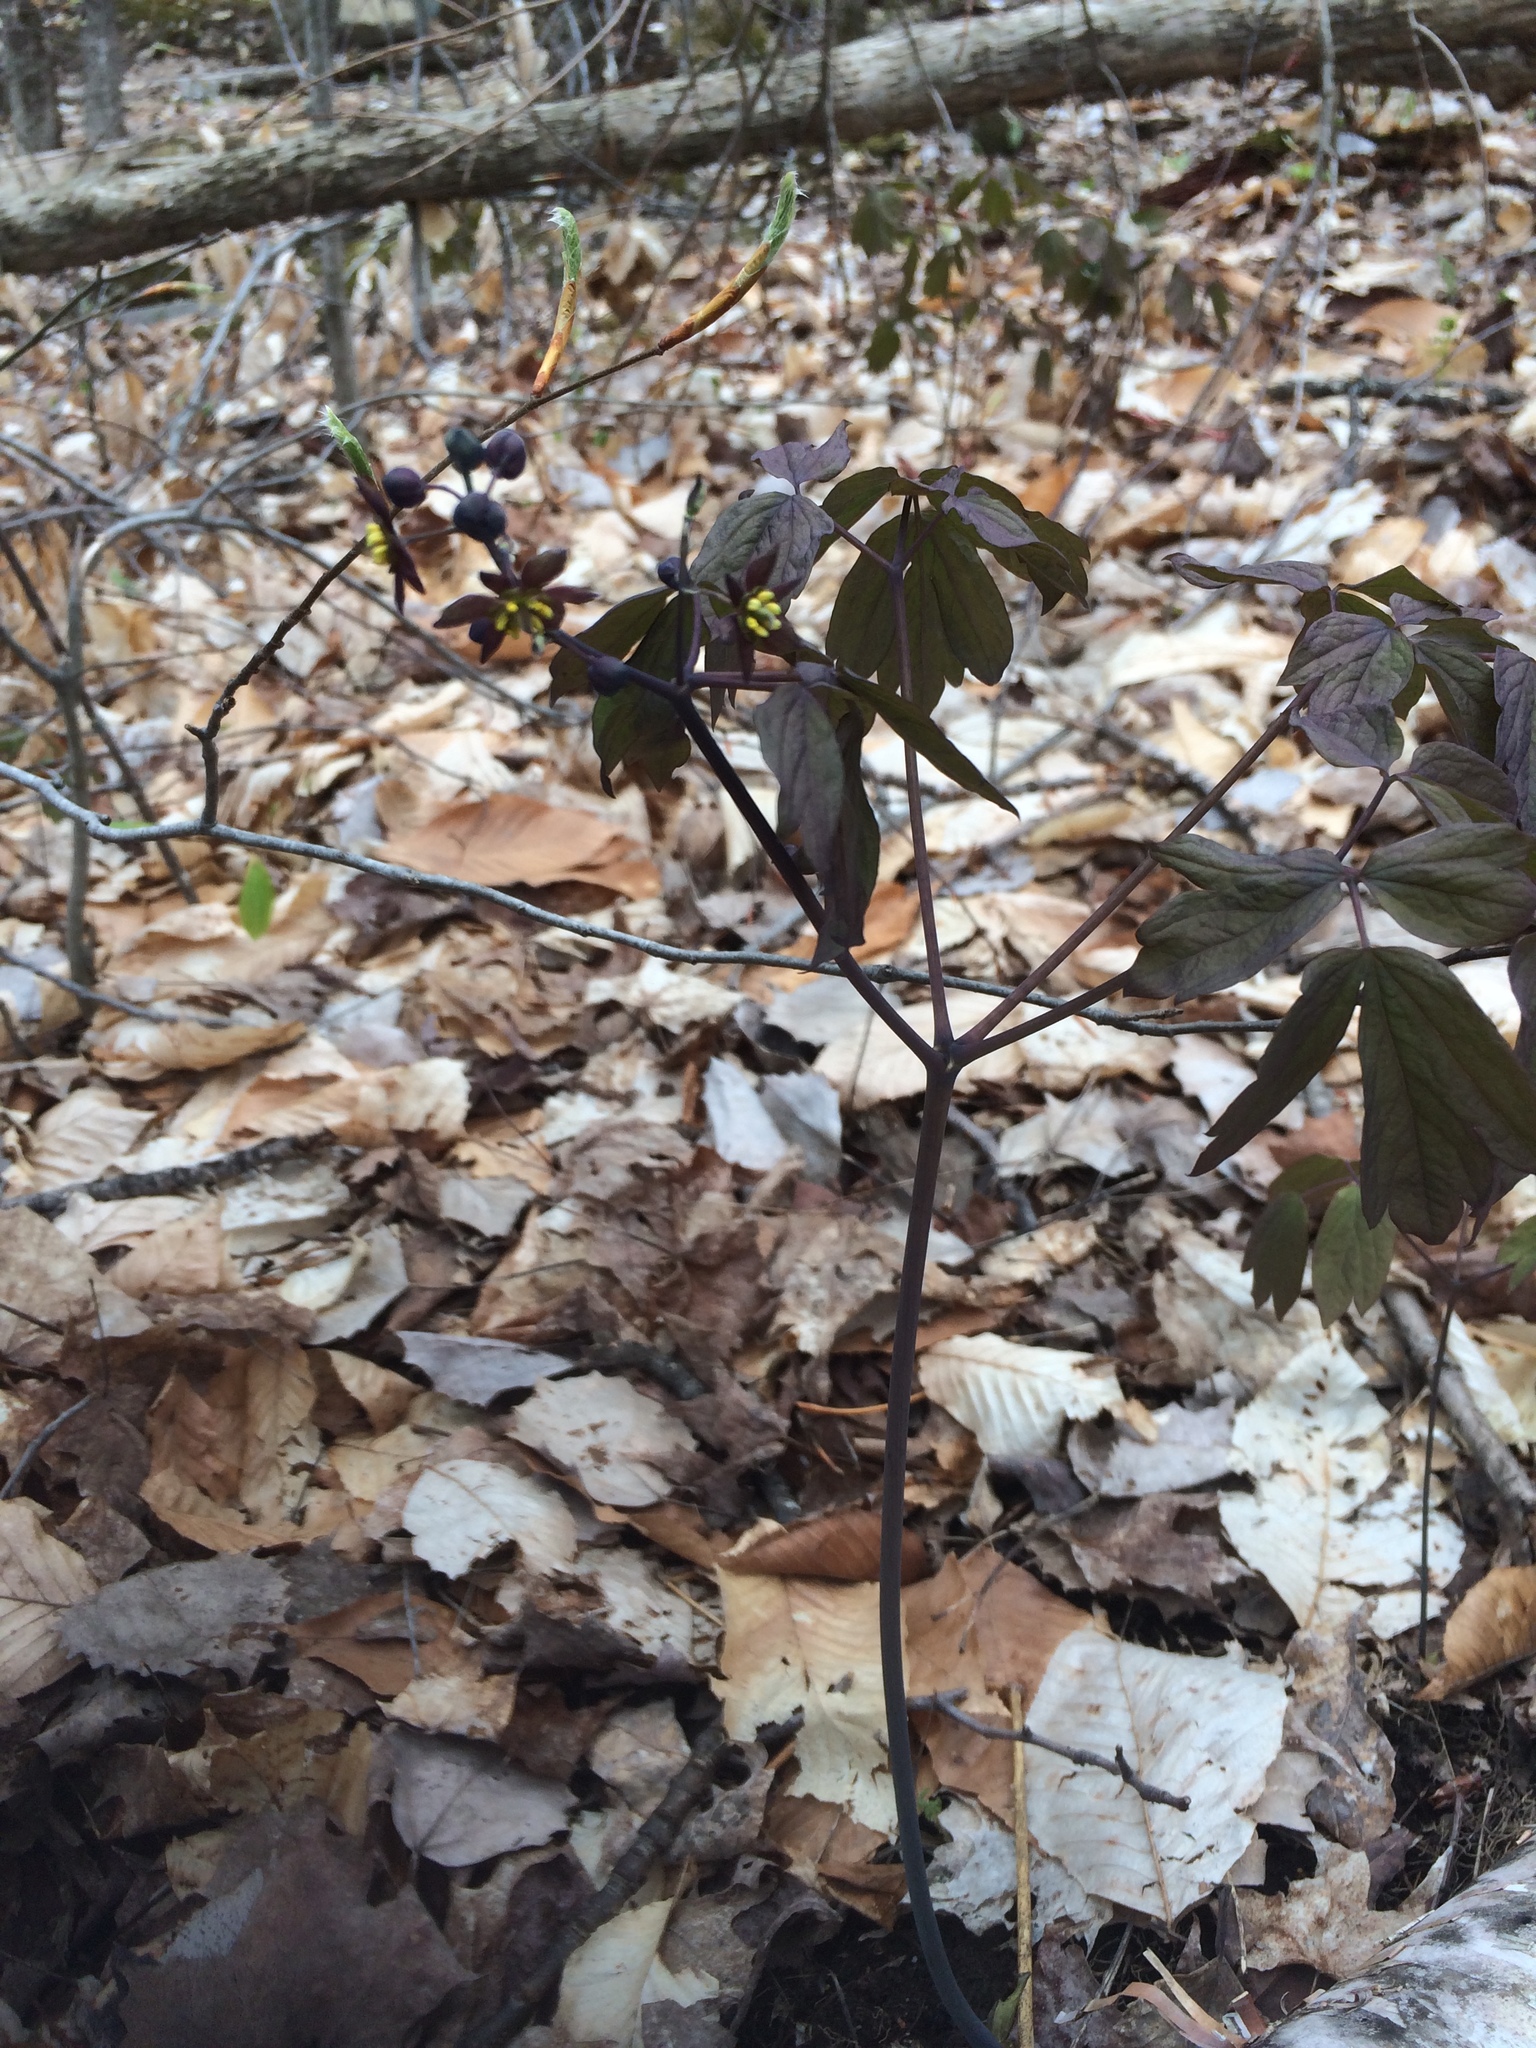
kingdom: Plantae
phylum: Tracheophyta
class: Magnoliopsida
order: Ranunculales
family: Berberidaceae
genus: Caulophyllum
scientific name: Caulophyllum giganteum
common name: Blue cohosh
